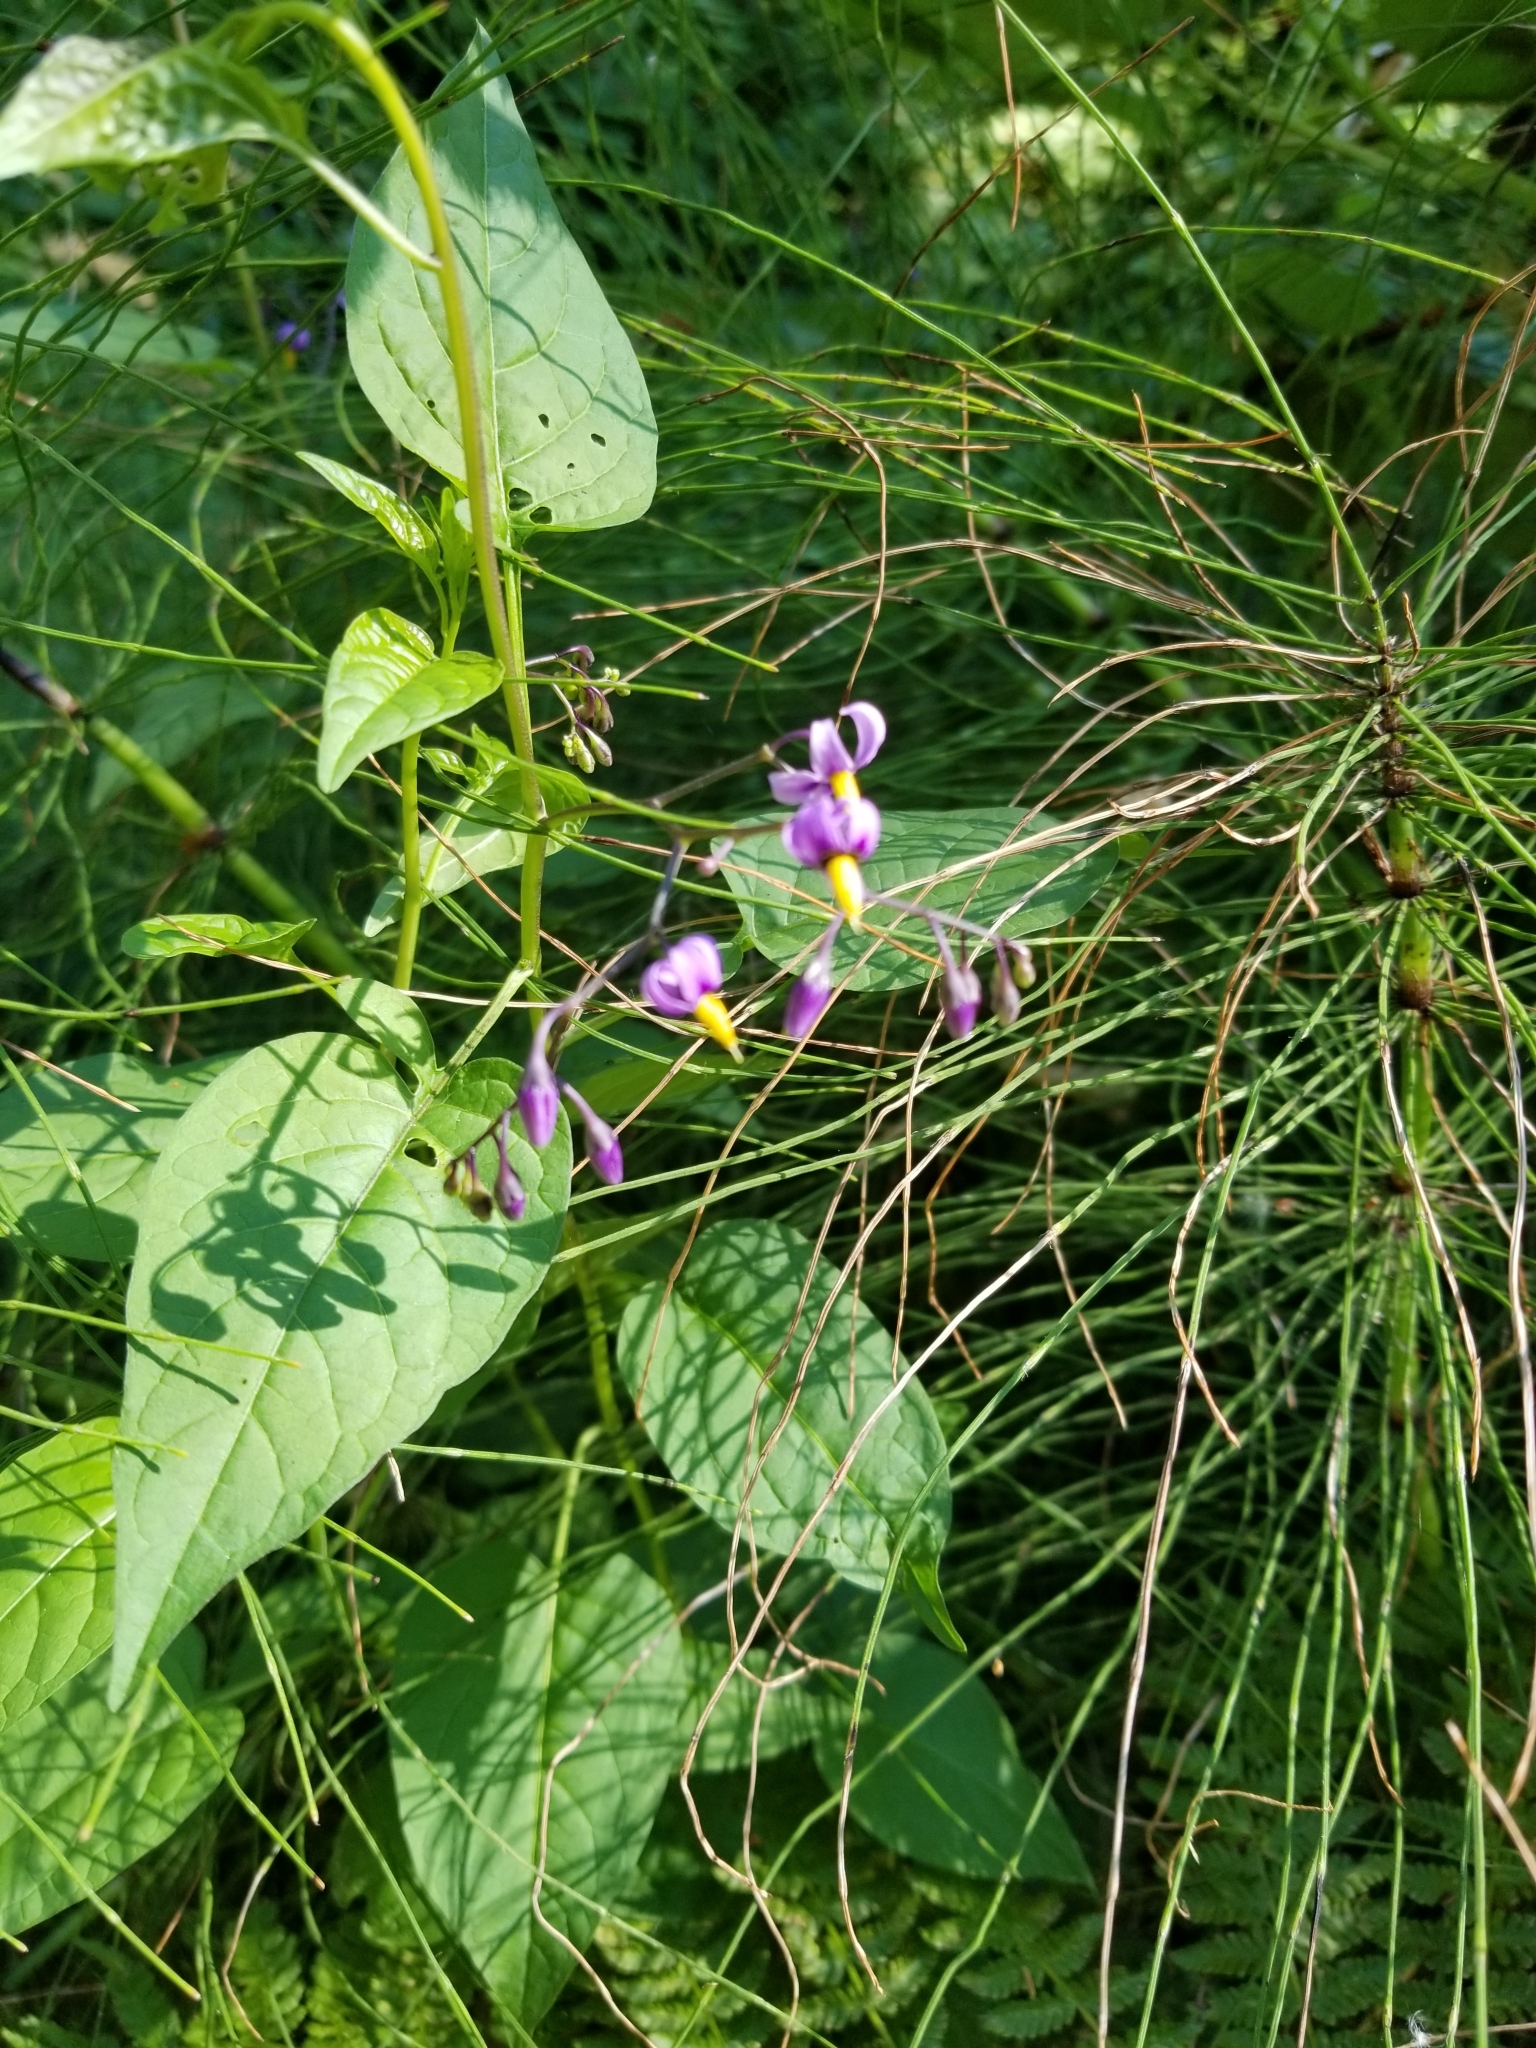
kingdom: Plantae
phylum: Tracheophyta
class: Magnoliopsida
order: Solanales
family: Solanaceae
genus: Solanum
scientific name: Solanum dulcamara
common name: Climbing nightshade
